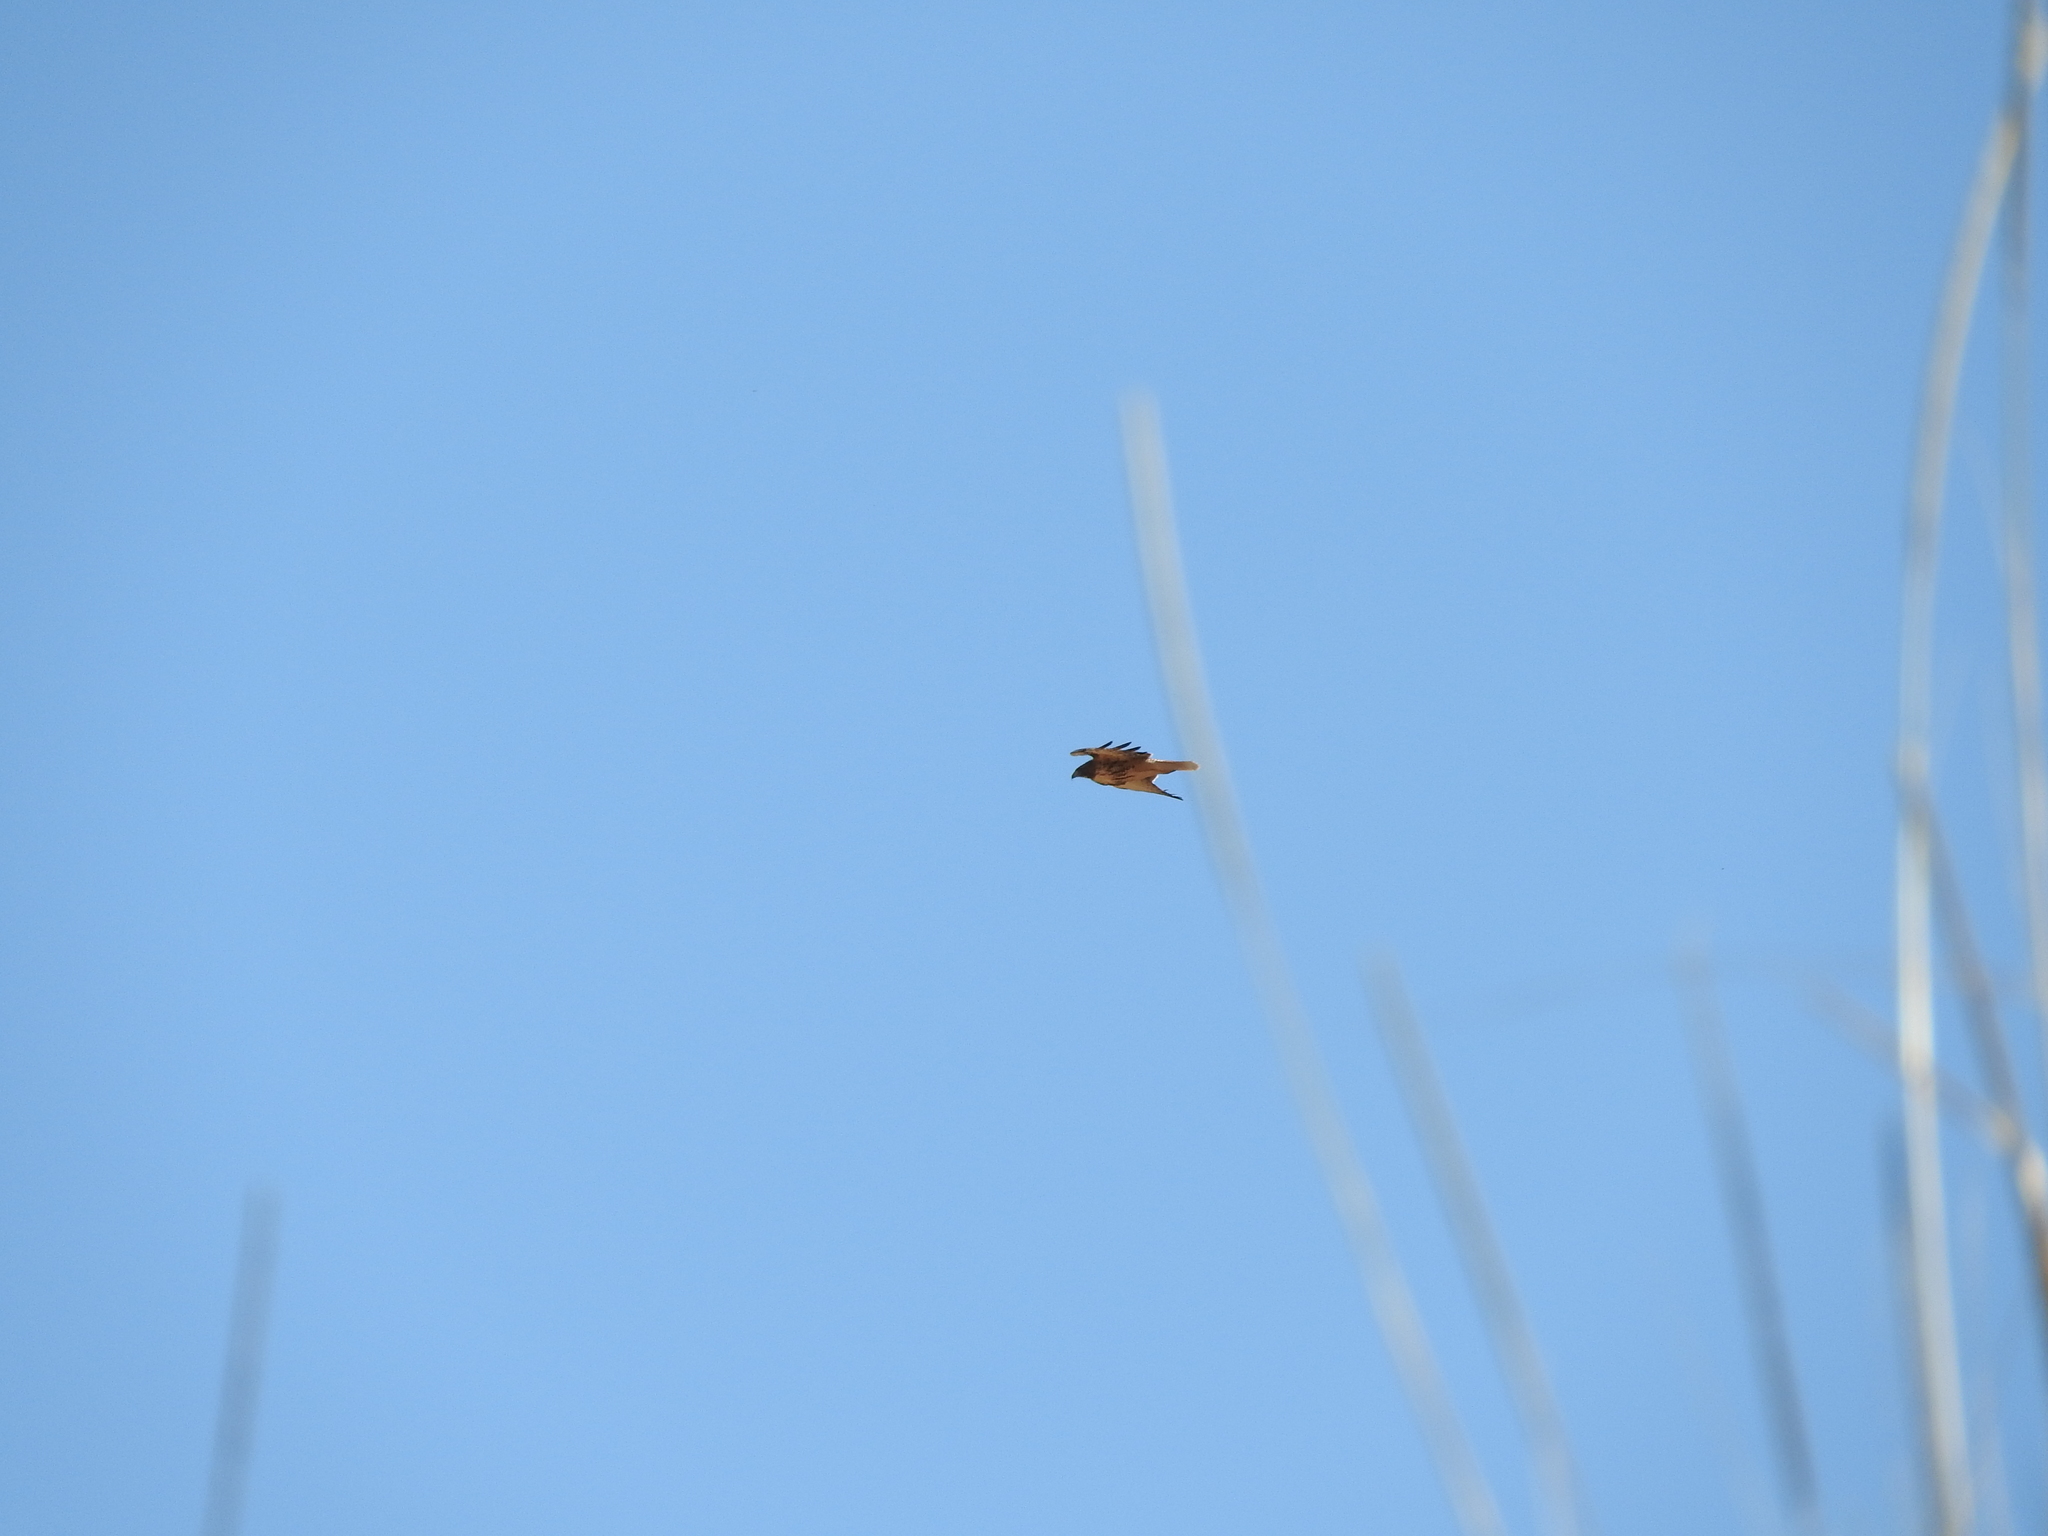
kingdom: Animalia
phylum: Chordata
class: Aves
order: Accipitriformes
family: Accipitridae
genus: Buteo
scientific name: Buteo jamaicensis
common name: Red-tailed hawk
